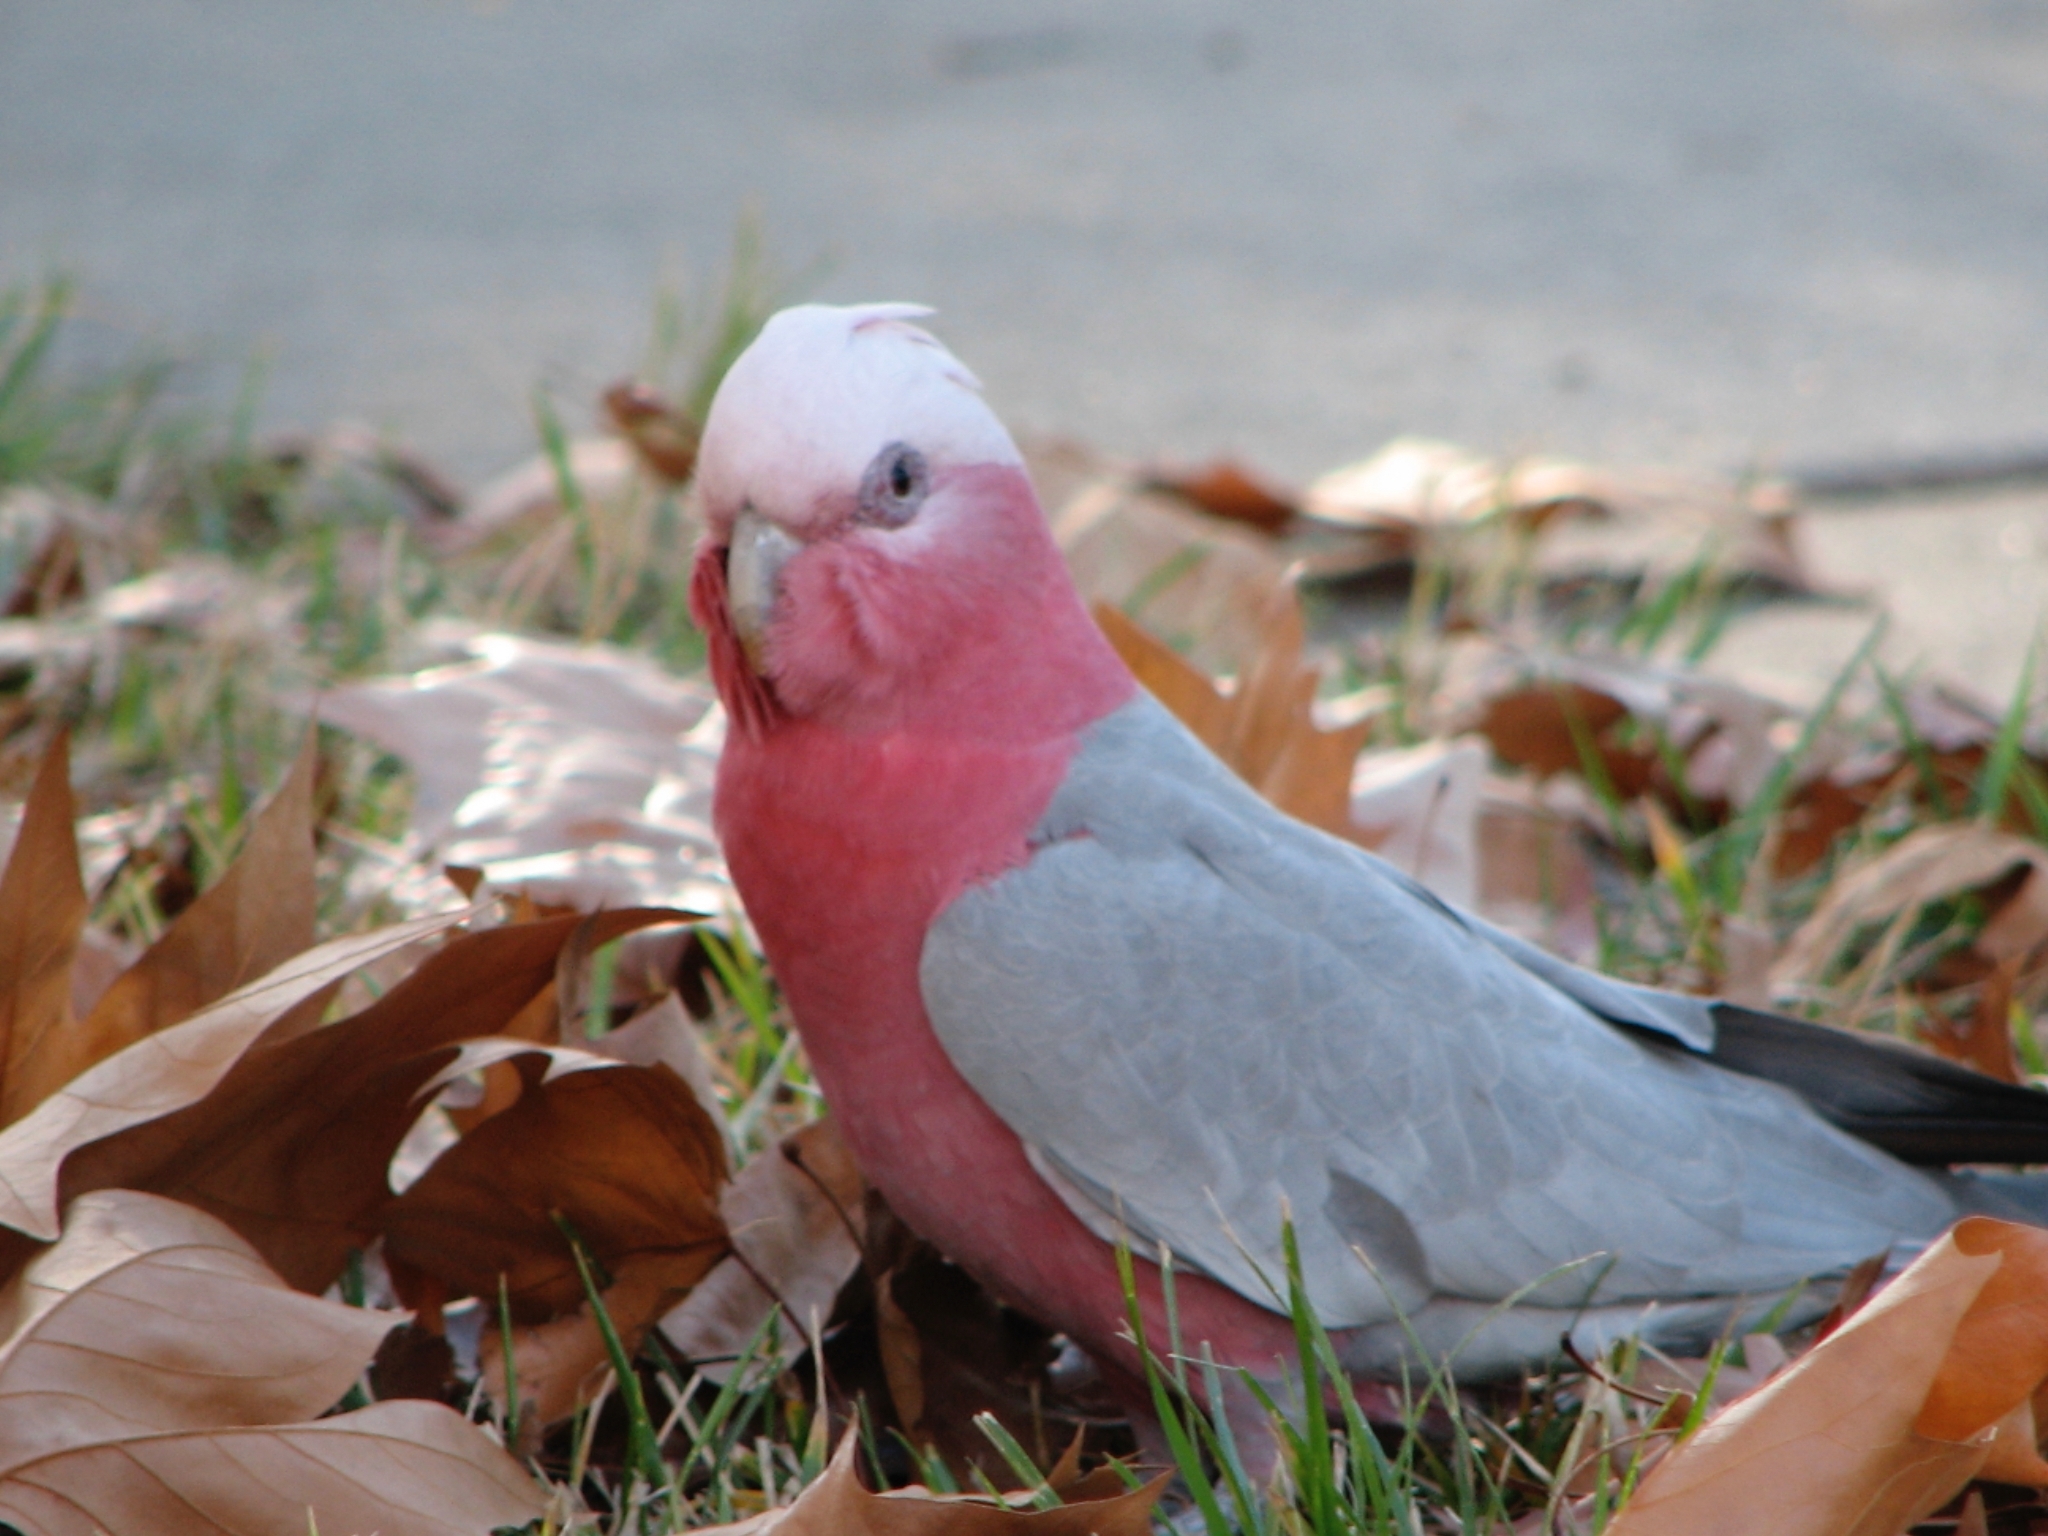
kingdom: Animalia
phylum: Chordata
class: Aves
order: Psittaciformes
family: Psittacidae
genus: Eolophus
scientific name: Eolophus roseicapilla
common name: Galah
